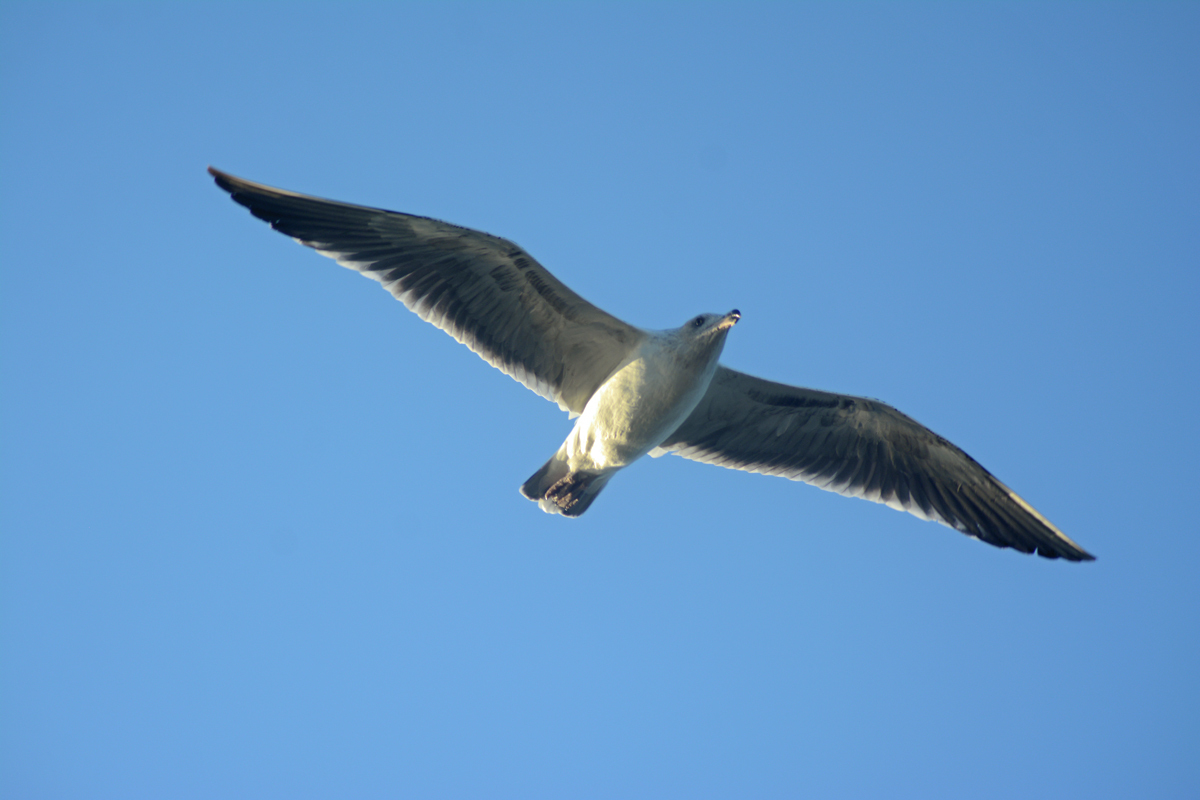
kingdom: Animalia
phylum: Chordata
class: Aves
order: Charadriiformes
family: Laridae
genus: Larus
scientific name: Larus livens
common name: Yellow-footed gull
